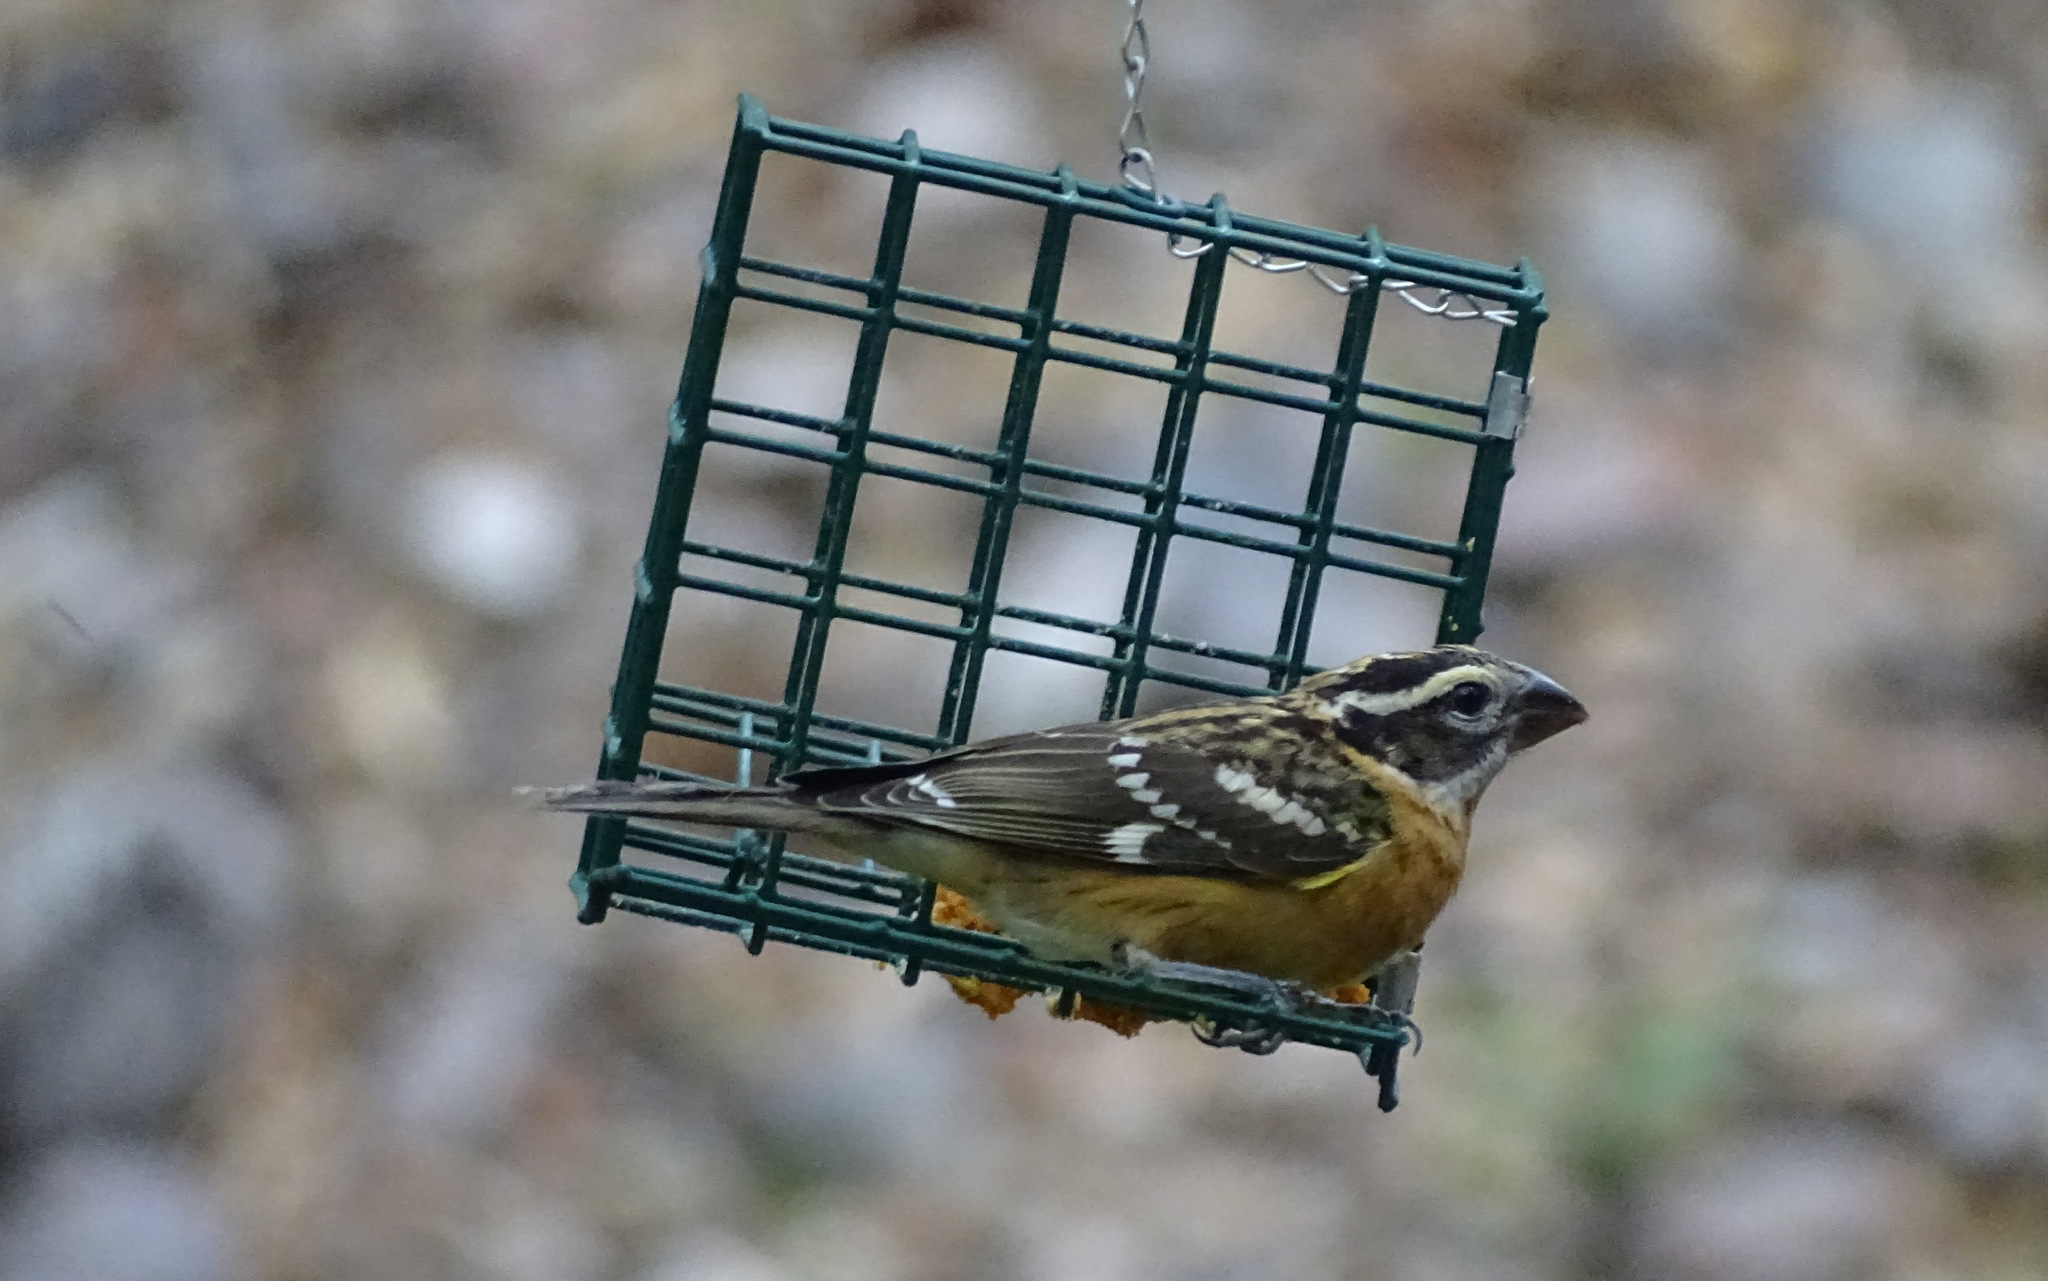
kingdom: Animalia
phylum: Chordata
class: Aves
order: Passeriformes
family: Cardinalidae
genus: Pheucticus
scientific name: Pheucticus melanocephalus
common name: Black-headed grosbeak
